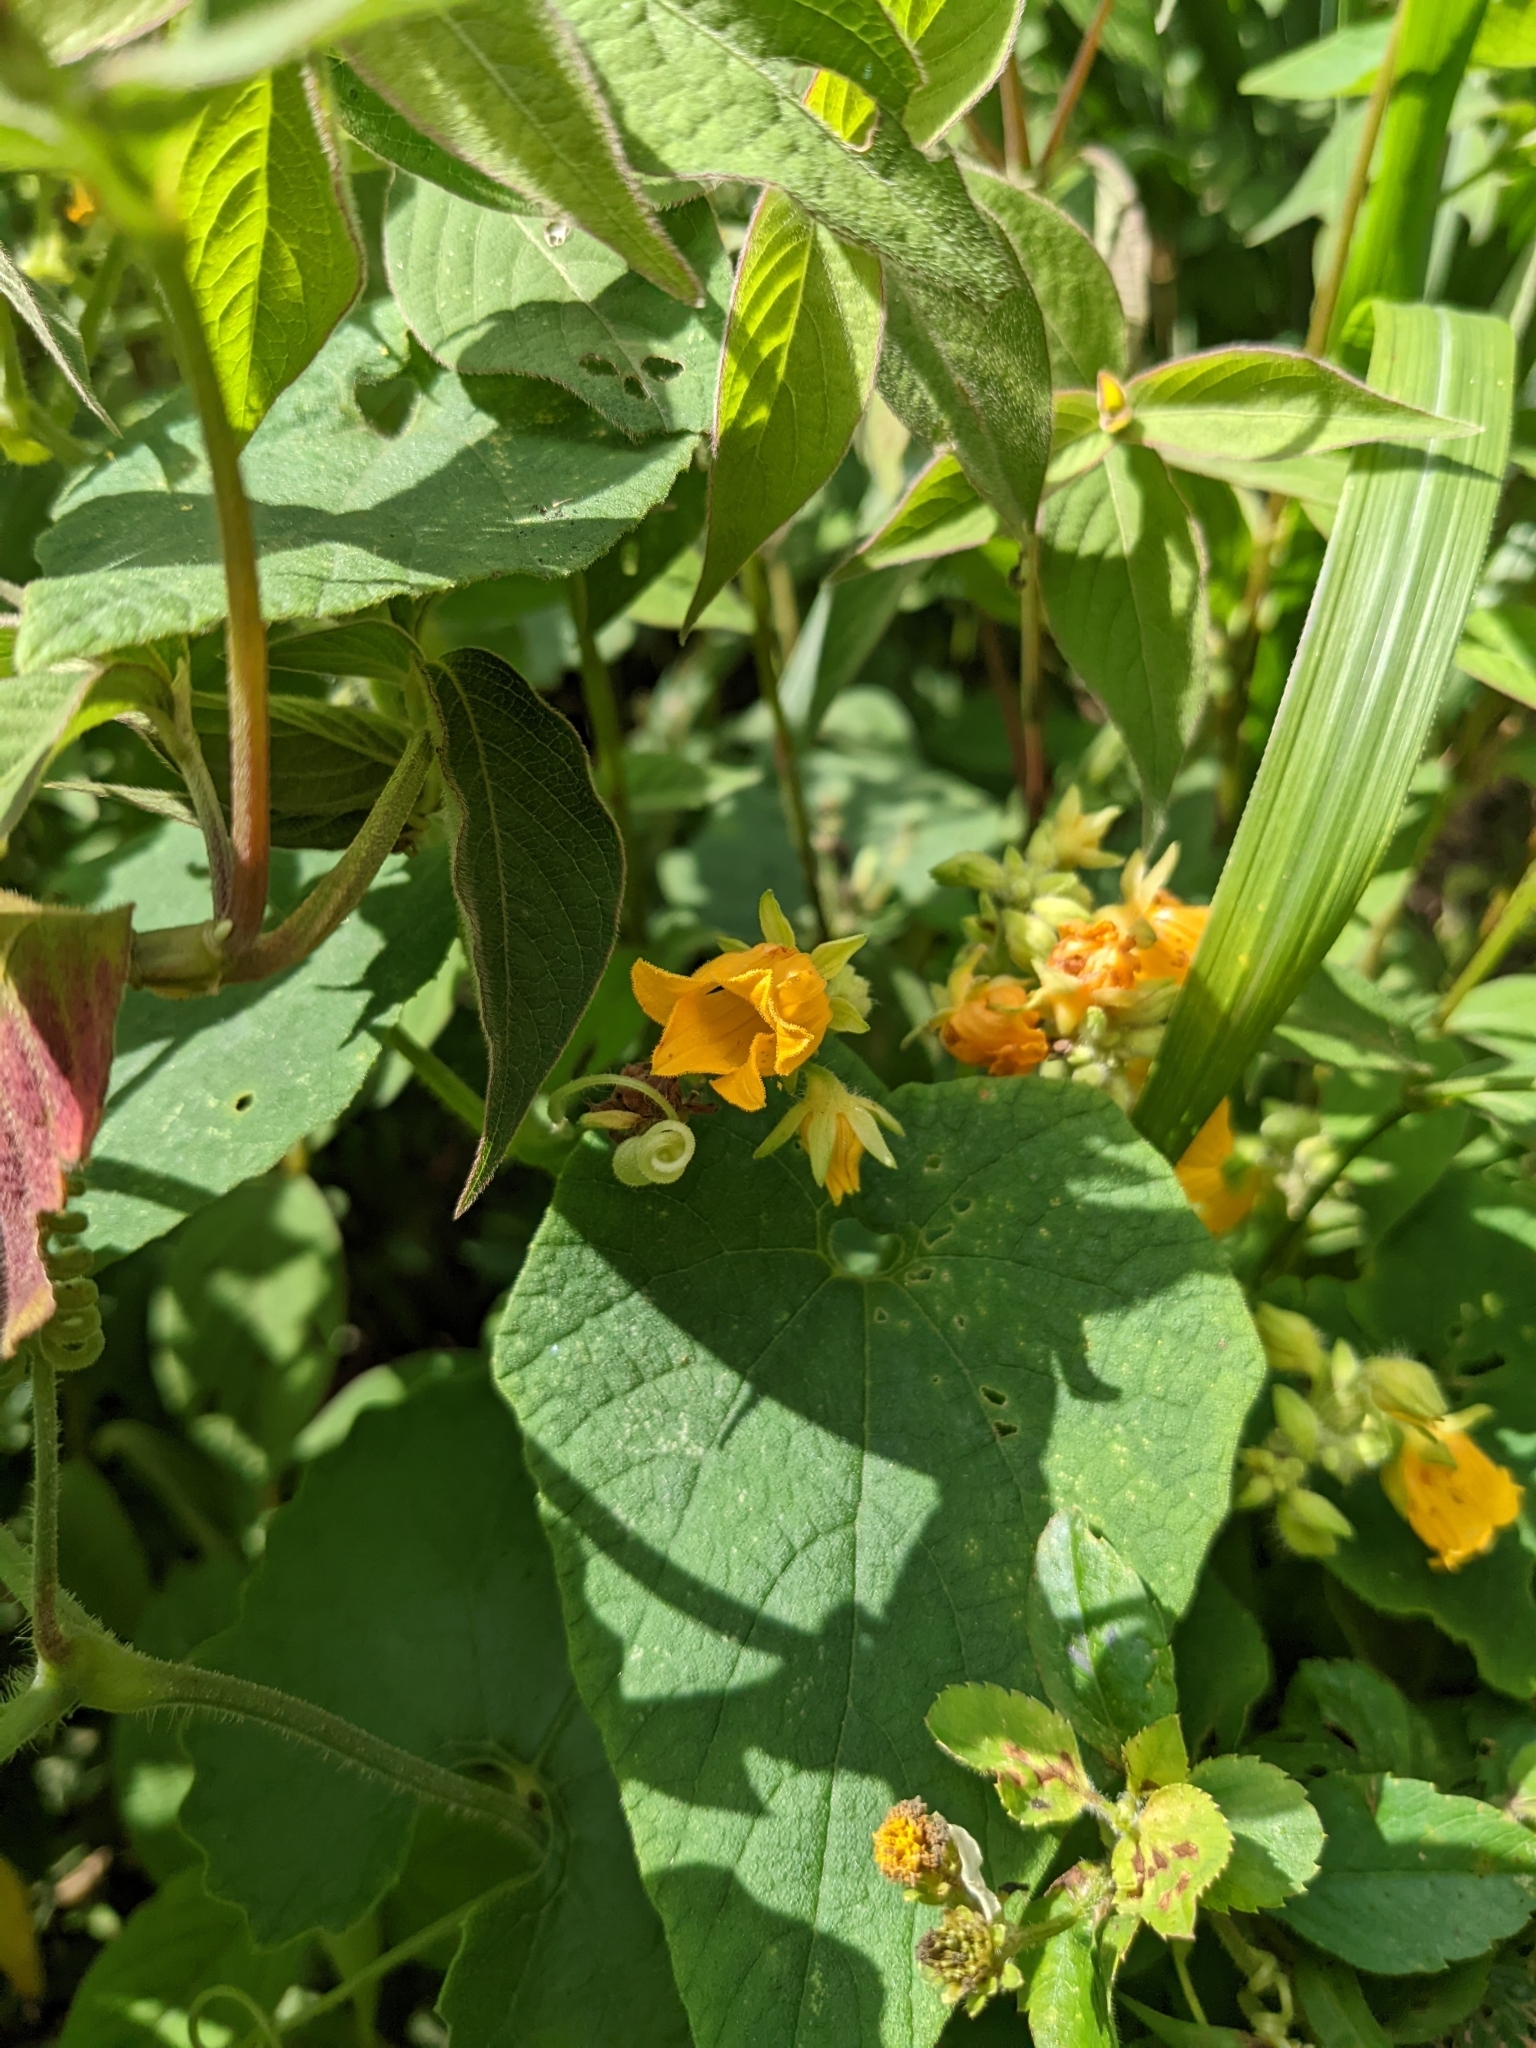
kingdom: Plantae
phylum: Tracheophyta
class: Magnoliopsida
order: Cucurbitales
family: Cucurbitaceae
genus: Thladiantha
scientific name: Thladiantha nudiflora
